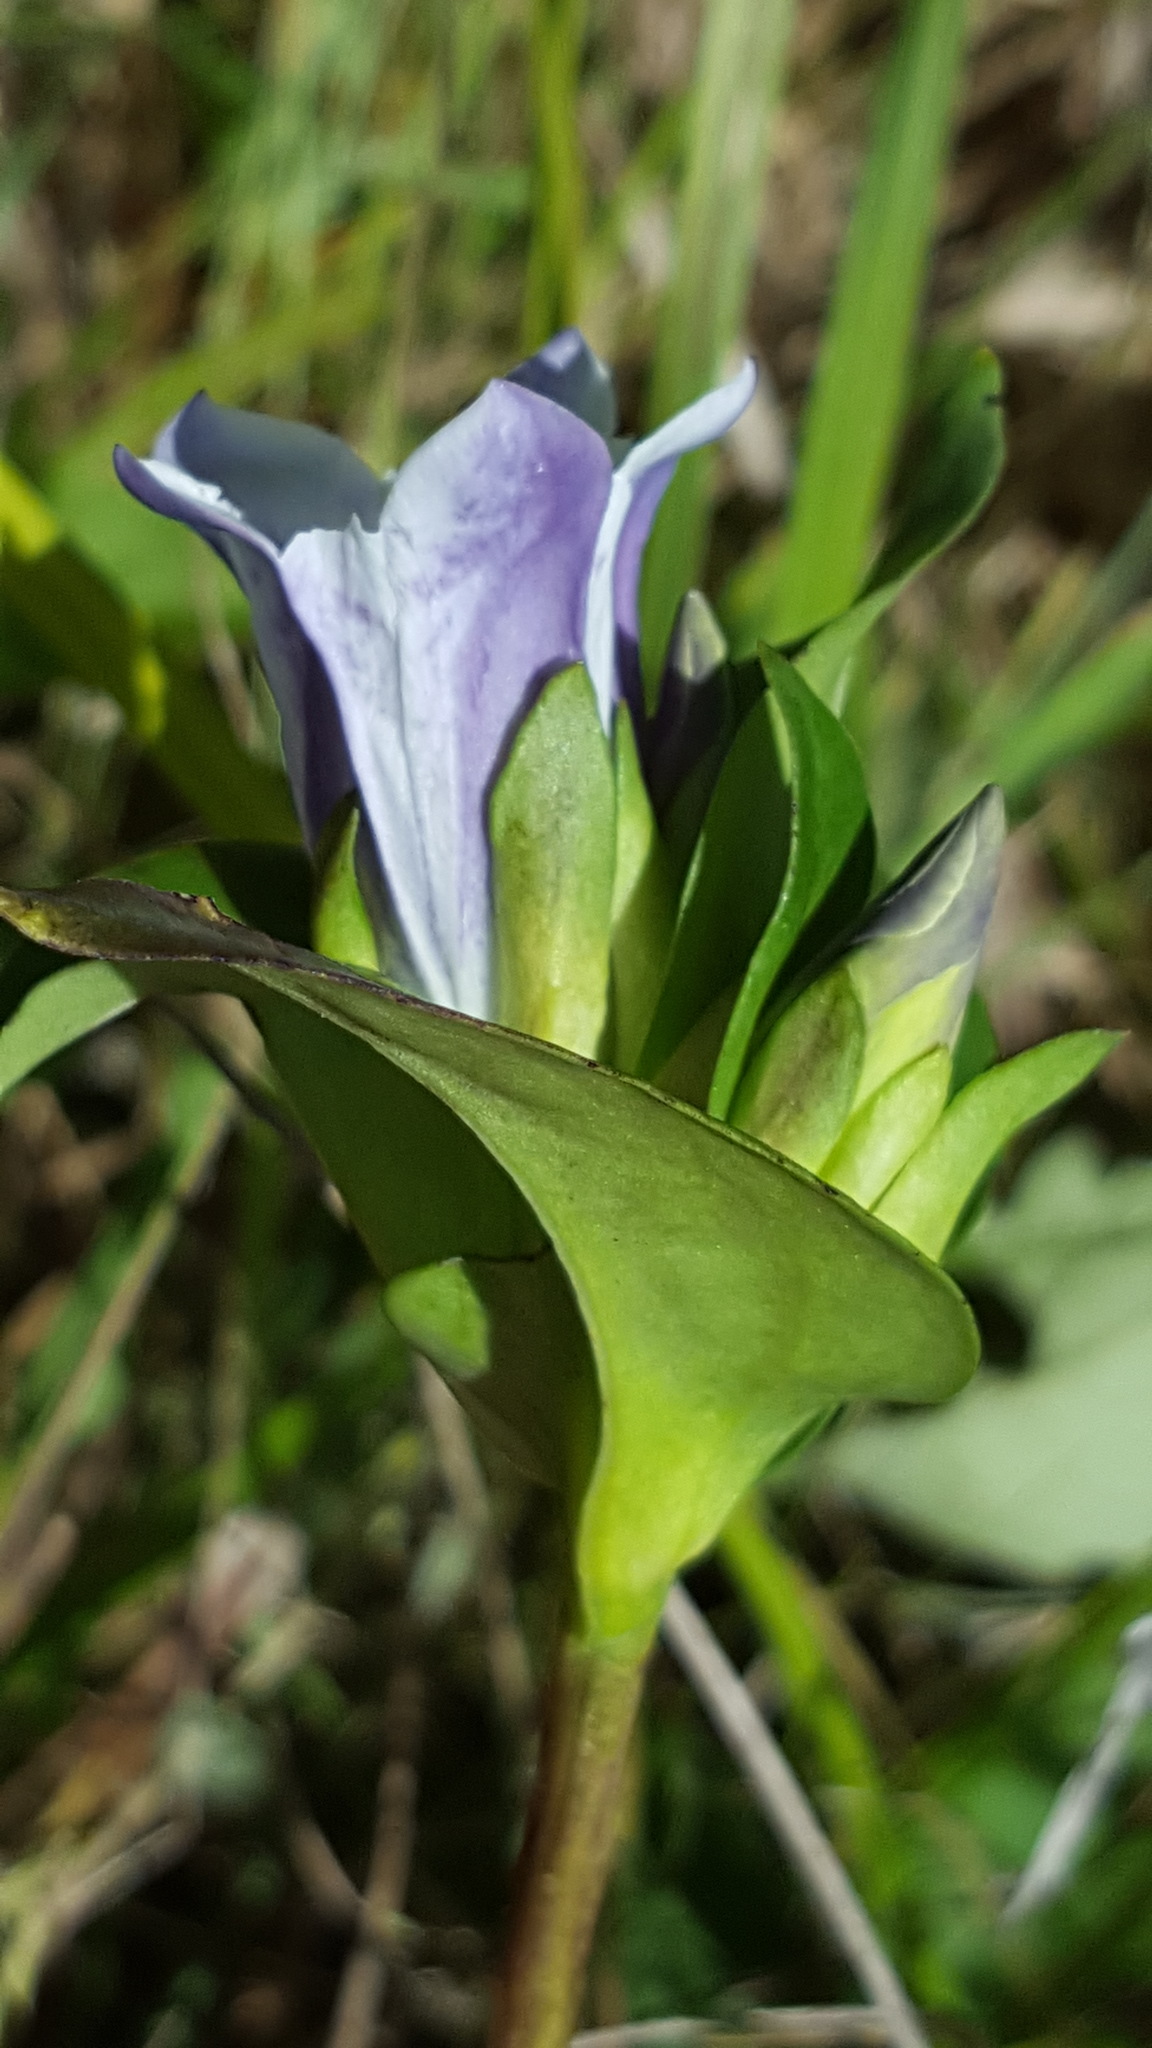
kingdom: Plantae
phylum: Tracheophyta
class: Magnoliopsida
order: Gentianales
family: Gentianaceae
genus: Gentiana
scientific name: Gentiana rubricaulis
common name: Purple-stemmed gentian
